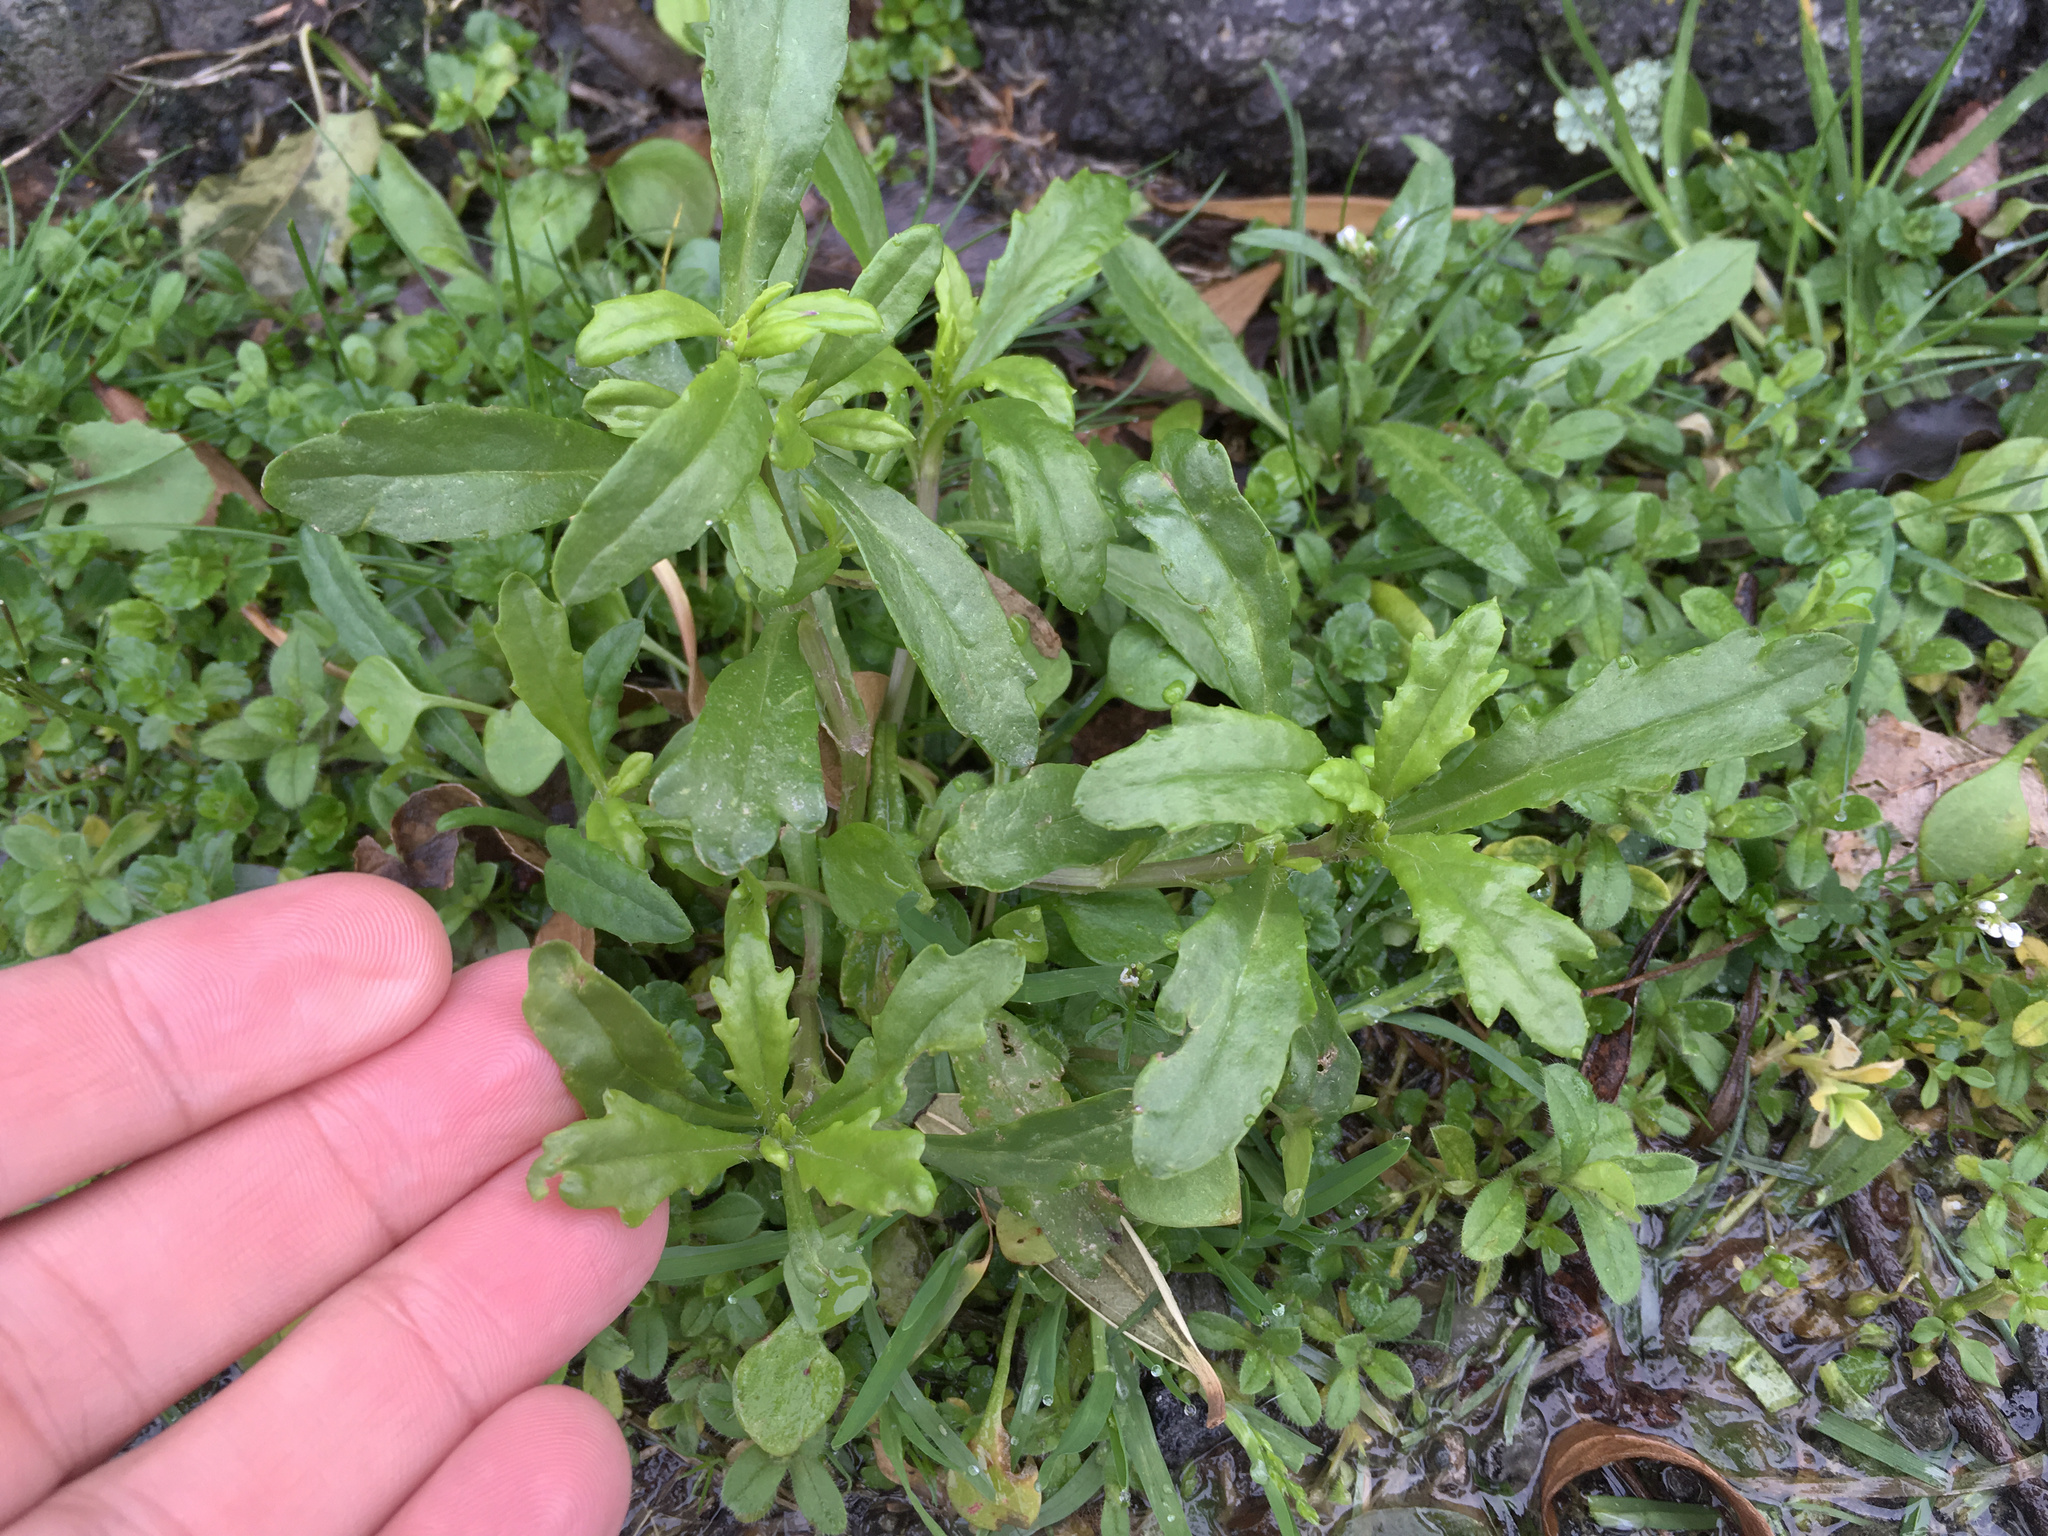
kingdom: Plantae
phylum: Tracheophyta
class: Magnoliopsida
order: Asterales
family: Asteraceae
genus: Senecio
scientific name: Senecio skirrhodon
